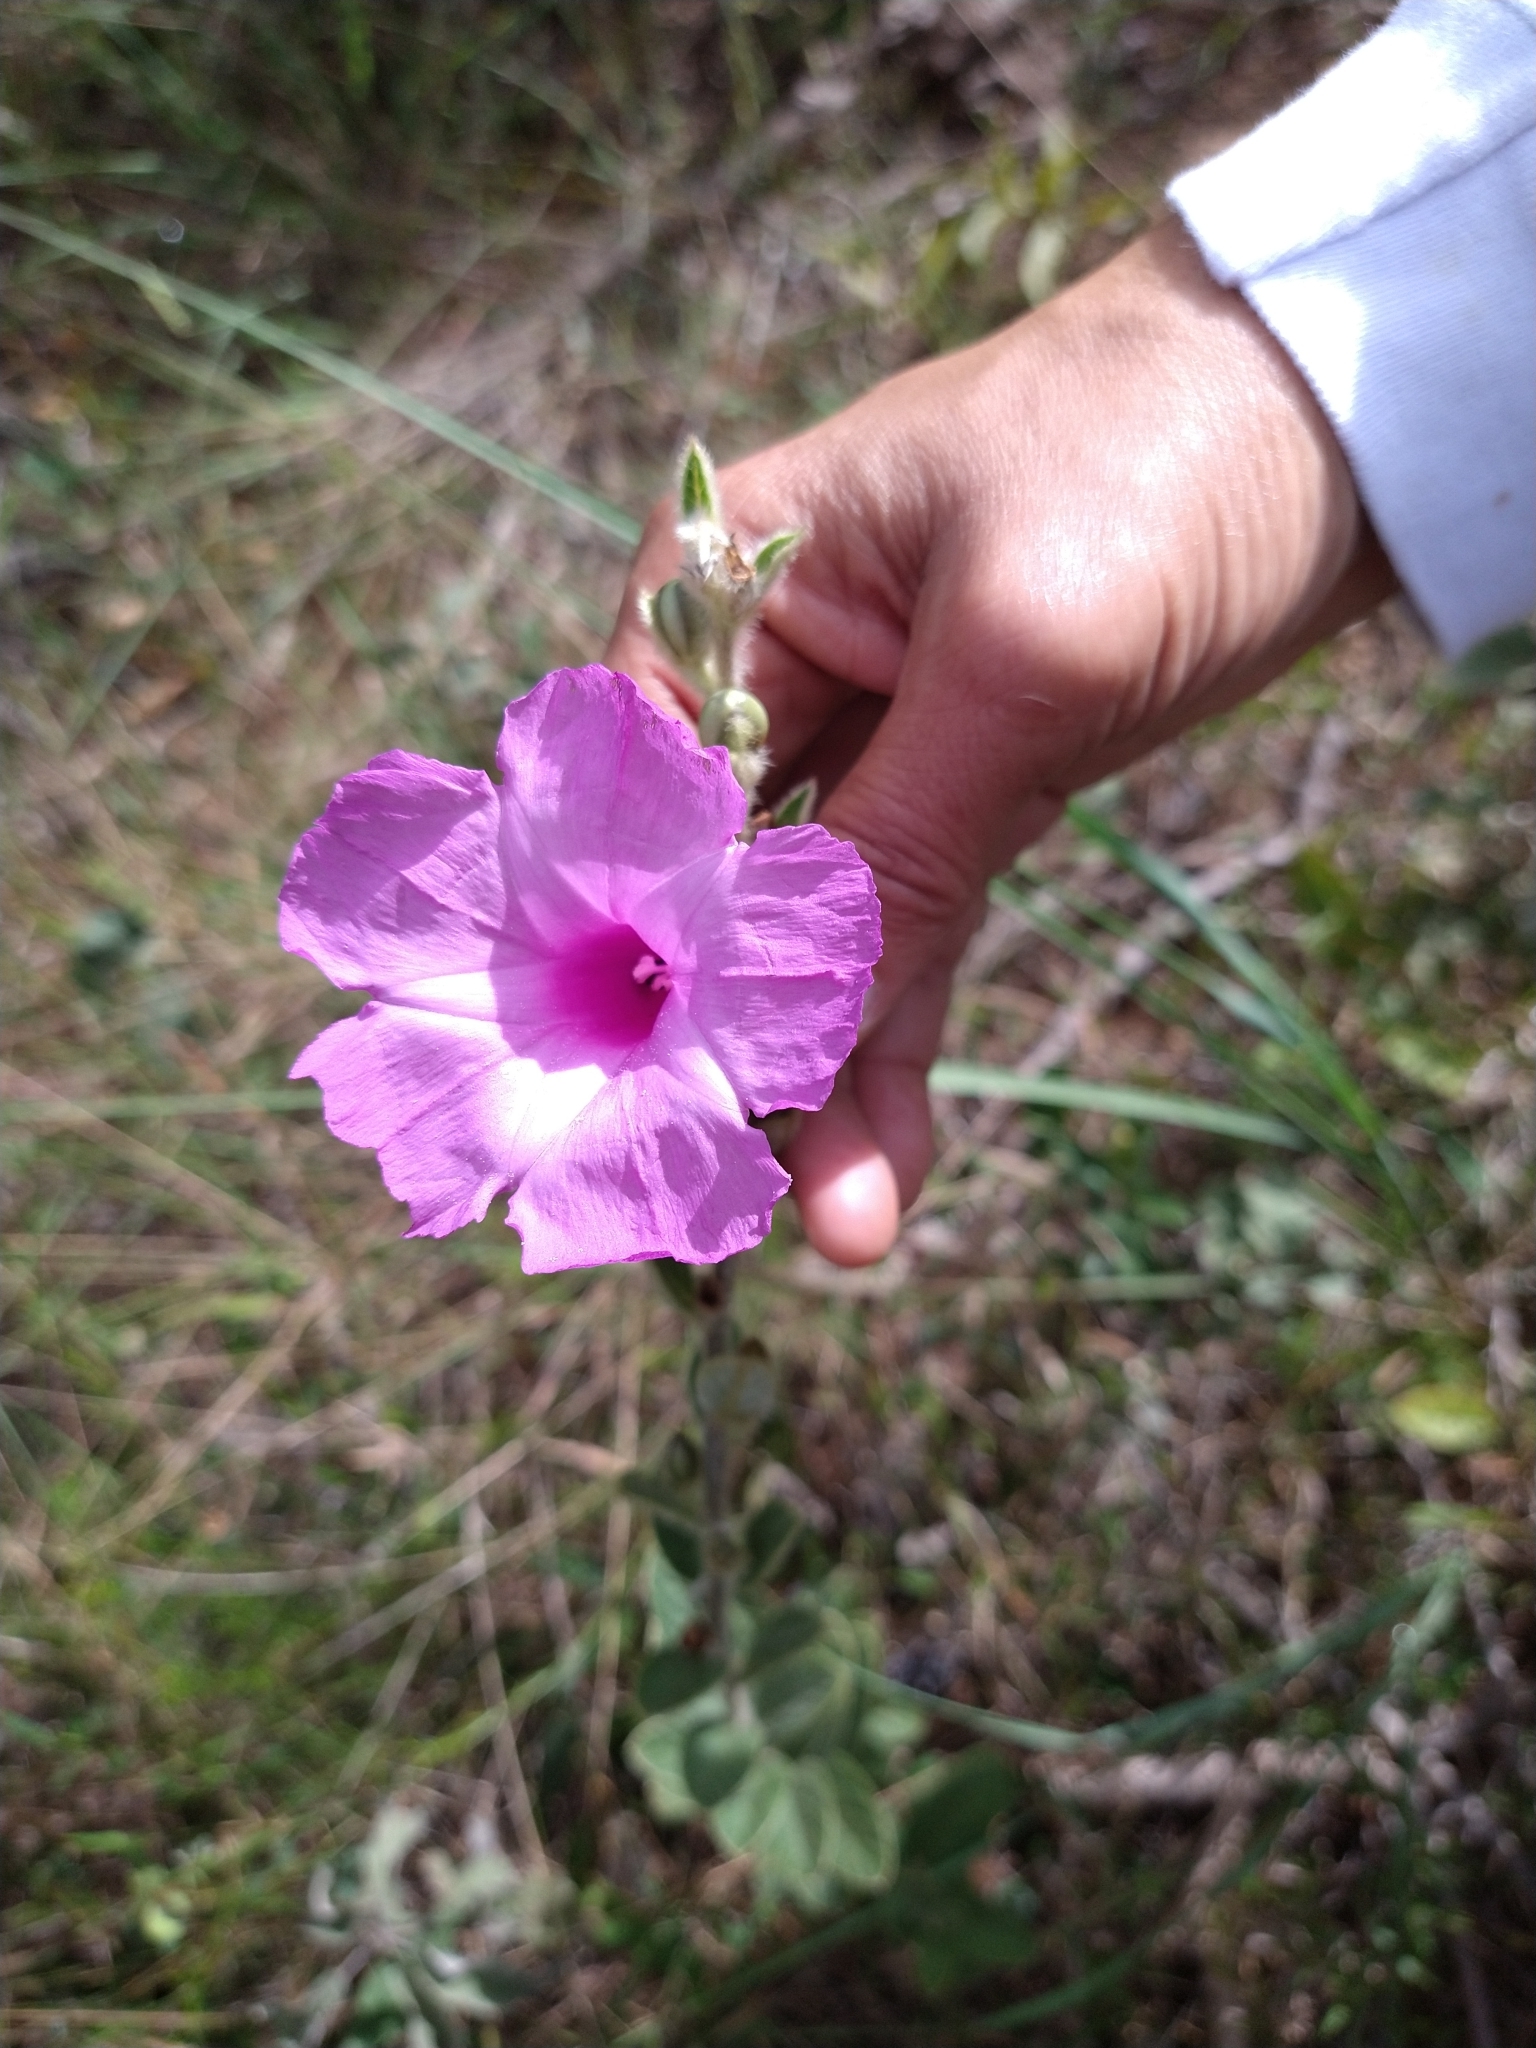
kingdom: Plantae
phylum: Tracheophyta
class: Magnoliopsida
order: Solanales
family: Convolvulaceae
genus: Ipomoea
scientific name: Ipomoea argentea
